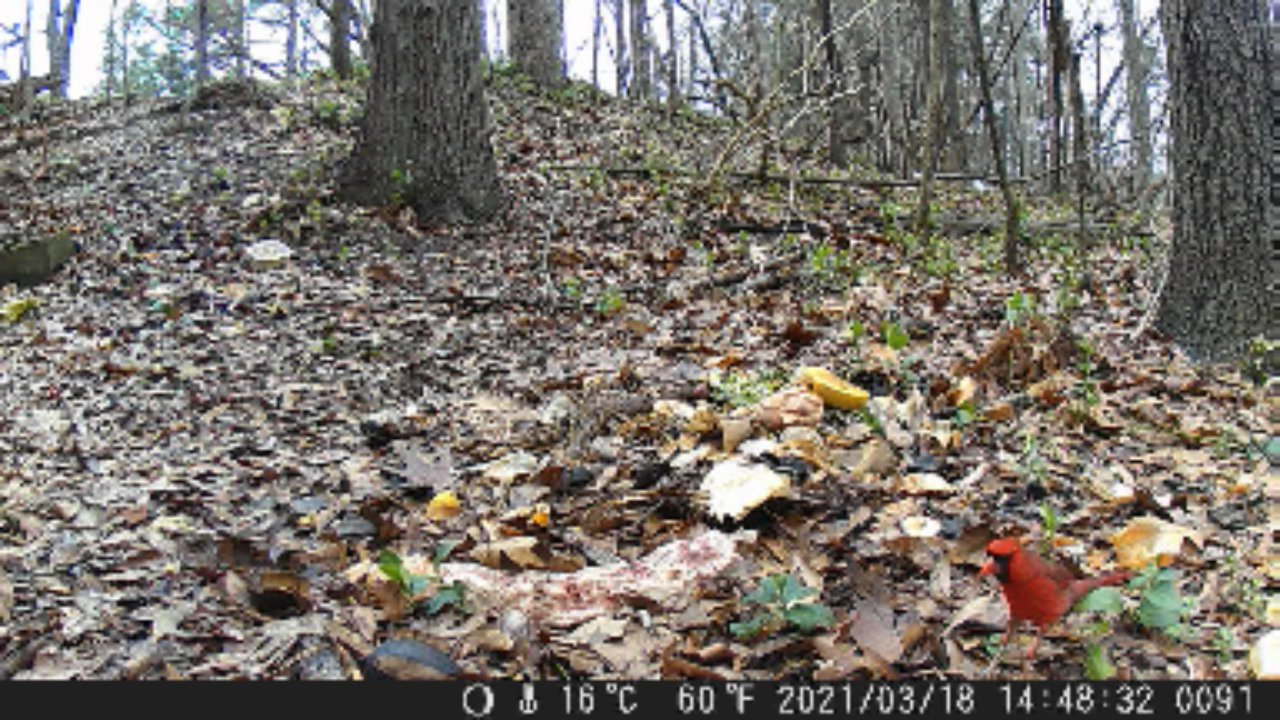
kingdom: Animalia
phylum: Chordata
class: Aves
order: Passeriformes
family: Cardinalidae
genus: Cardinalis
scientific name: Cardinalis cardinalis
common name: Northern cardinal
